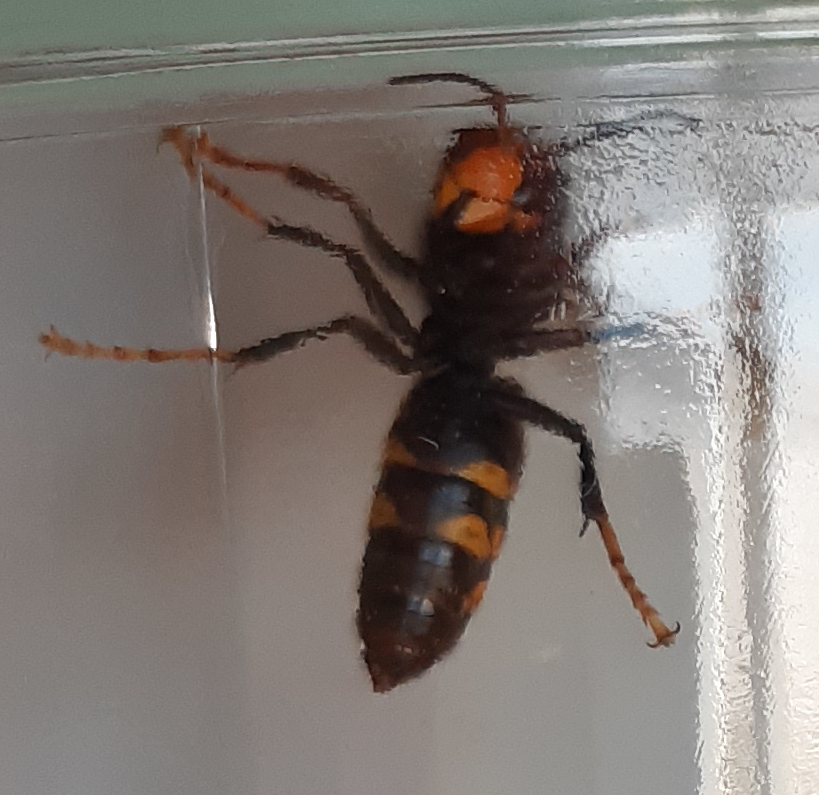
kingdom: Animalia
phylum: Arthropoda
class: Insecta
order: Hymenoptera
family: Vespidae
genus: Vespa
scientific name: Vespa velutina
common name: Asian hornet
